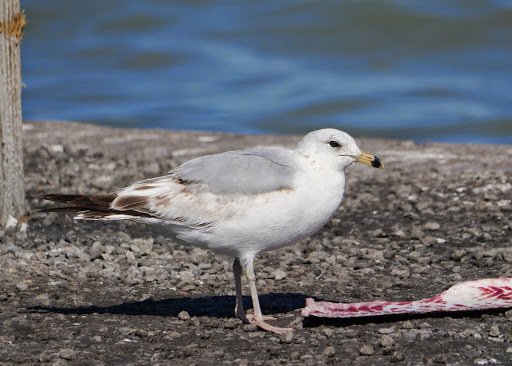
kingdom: Animalia
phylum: Chordata
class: Aves
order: Charadriiformes
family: Laridae
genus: Larus
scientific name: Larus delawarensis
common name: Ring-billed gull
